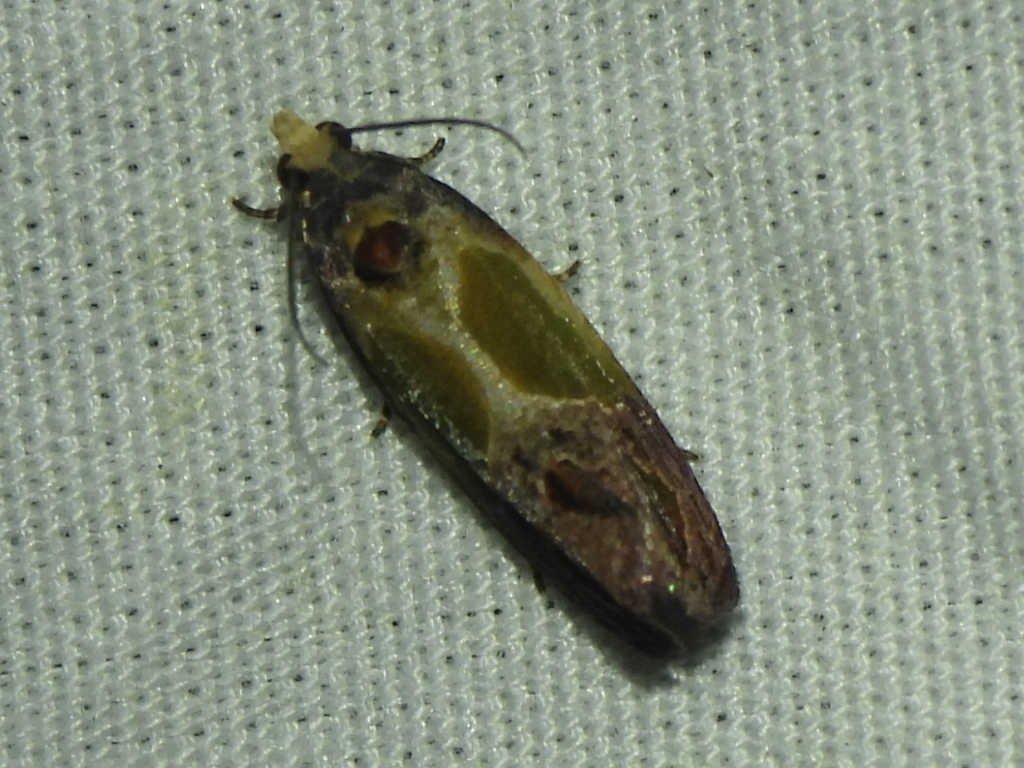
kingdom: Animalia
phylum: Arthropoda
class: Insecta
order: Lepidoptera
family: Tortricidae
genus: Eumarozia
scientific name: Eumarozia malachitana
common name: Sculptured moth
